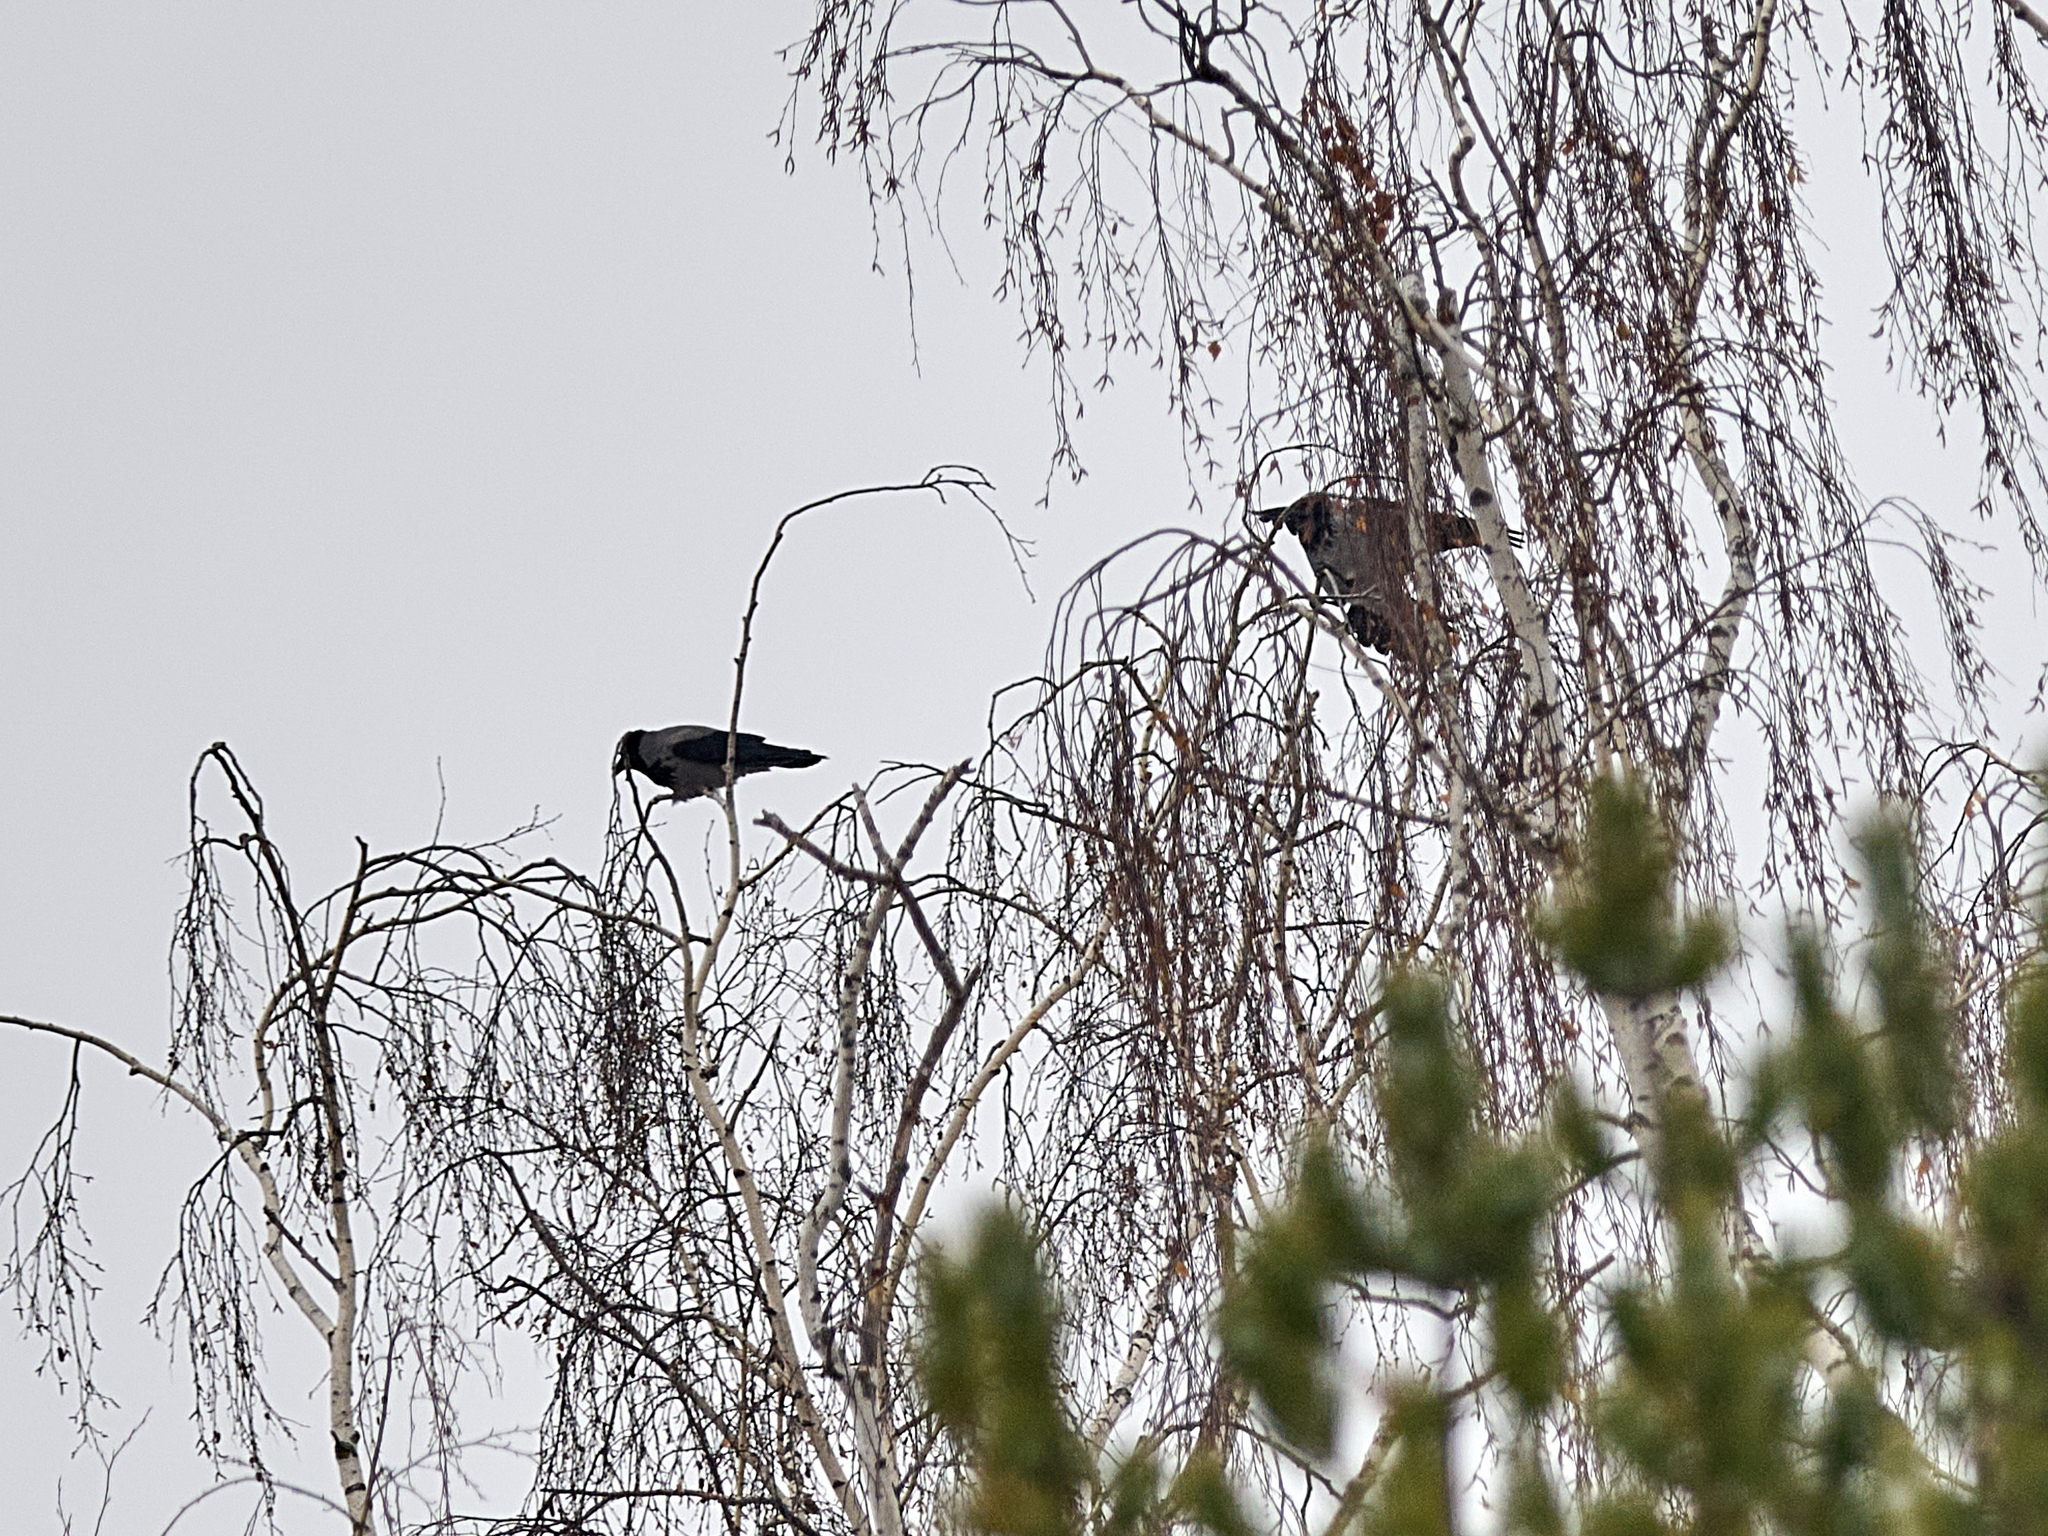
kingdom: Animalia
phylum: Chordata
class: Aves
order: Passeriformes
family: Corvidae
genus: Corvus
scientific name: Corvus cornix
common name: Hooded crow
